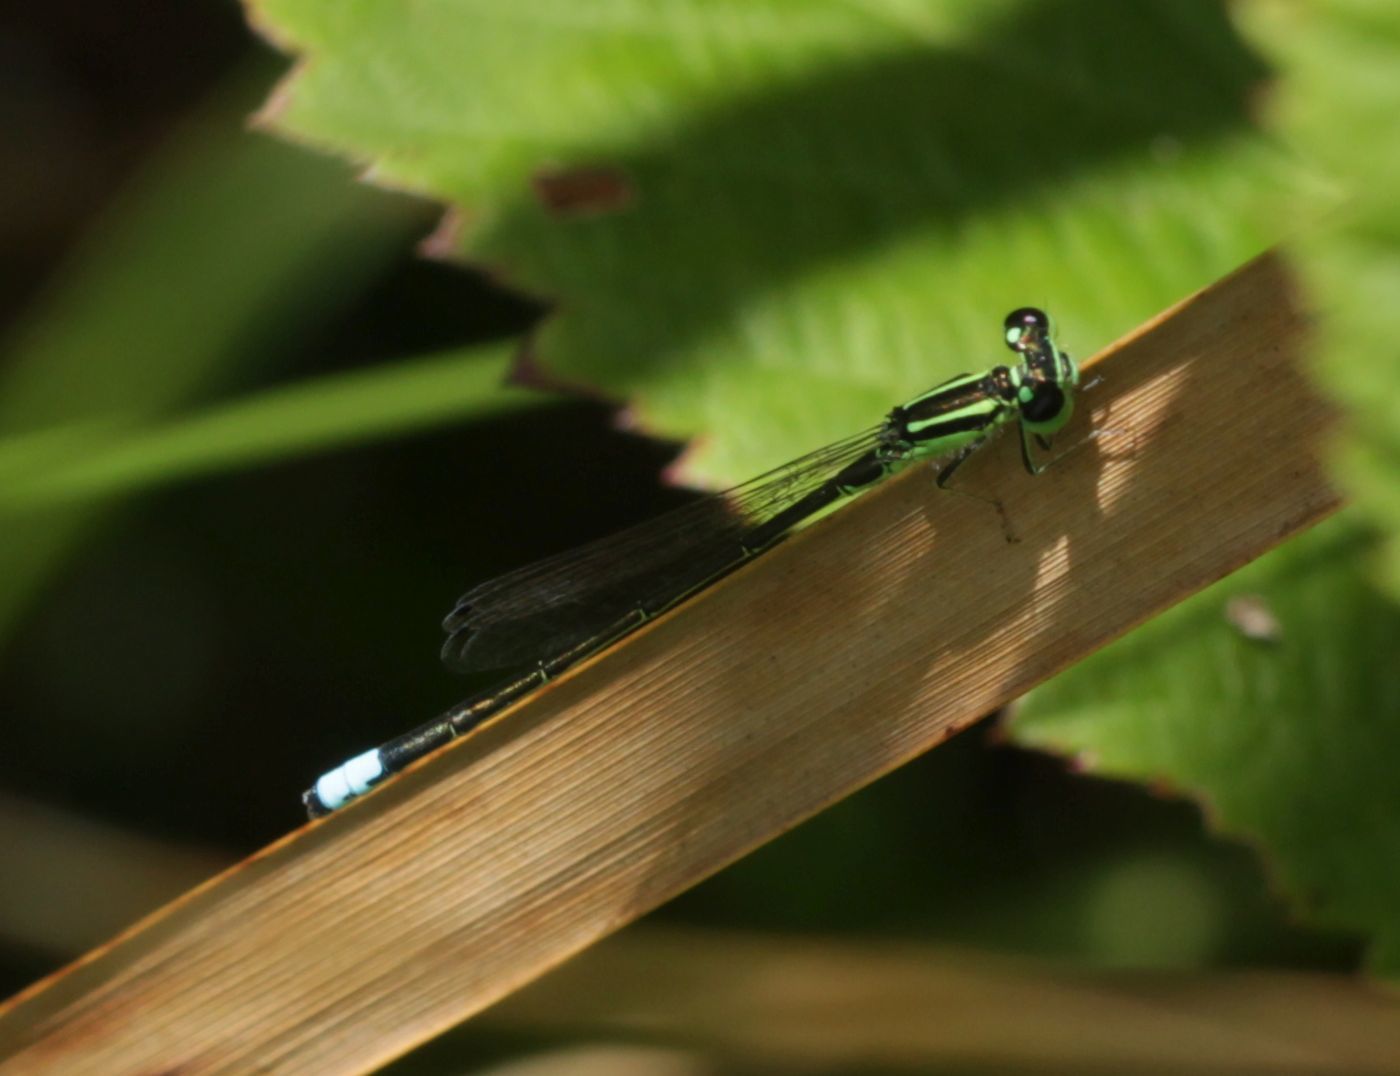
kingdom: Animalia
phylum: Arthropoda
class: Insecta
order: Odonata
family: Coenagrionidae
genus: Ischnura
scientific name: Ischnura verticalis
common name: Eastern forktail
